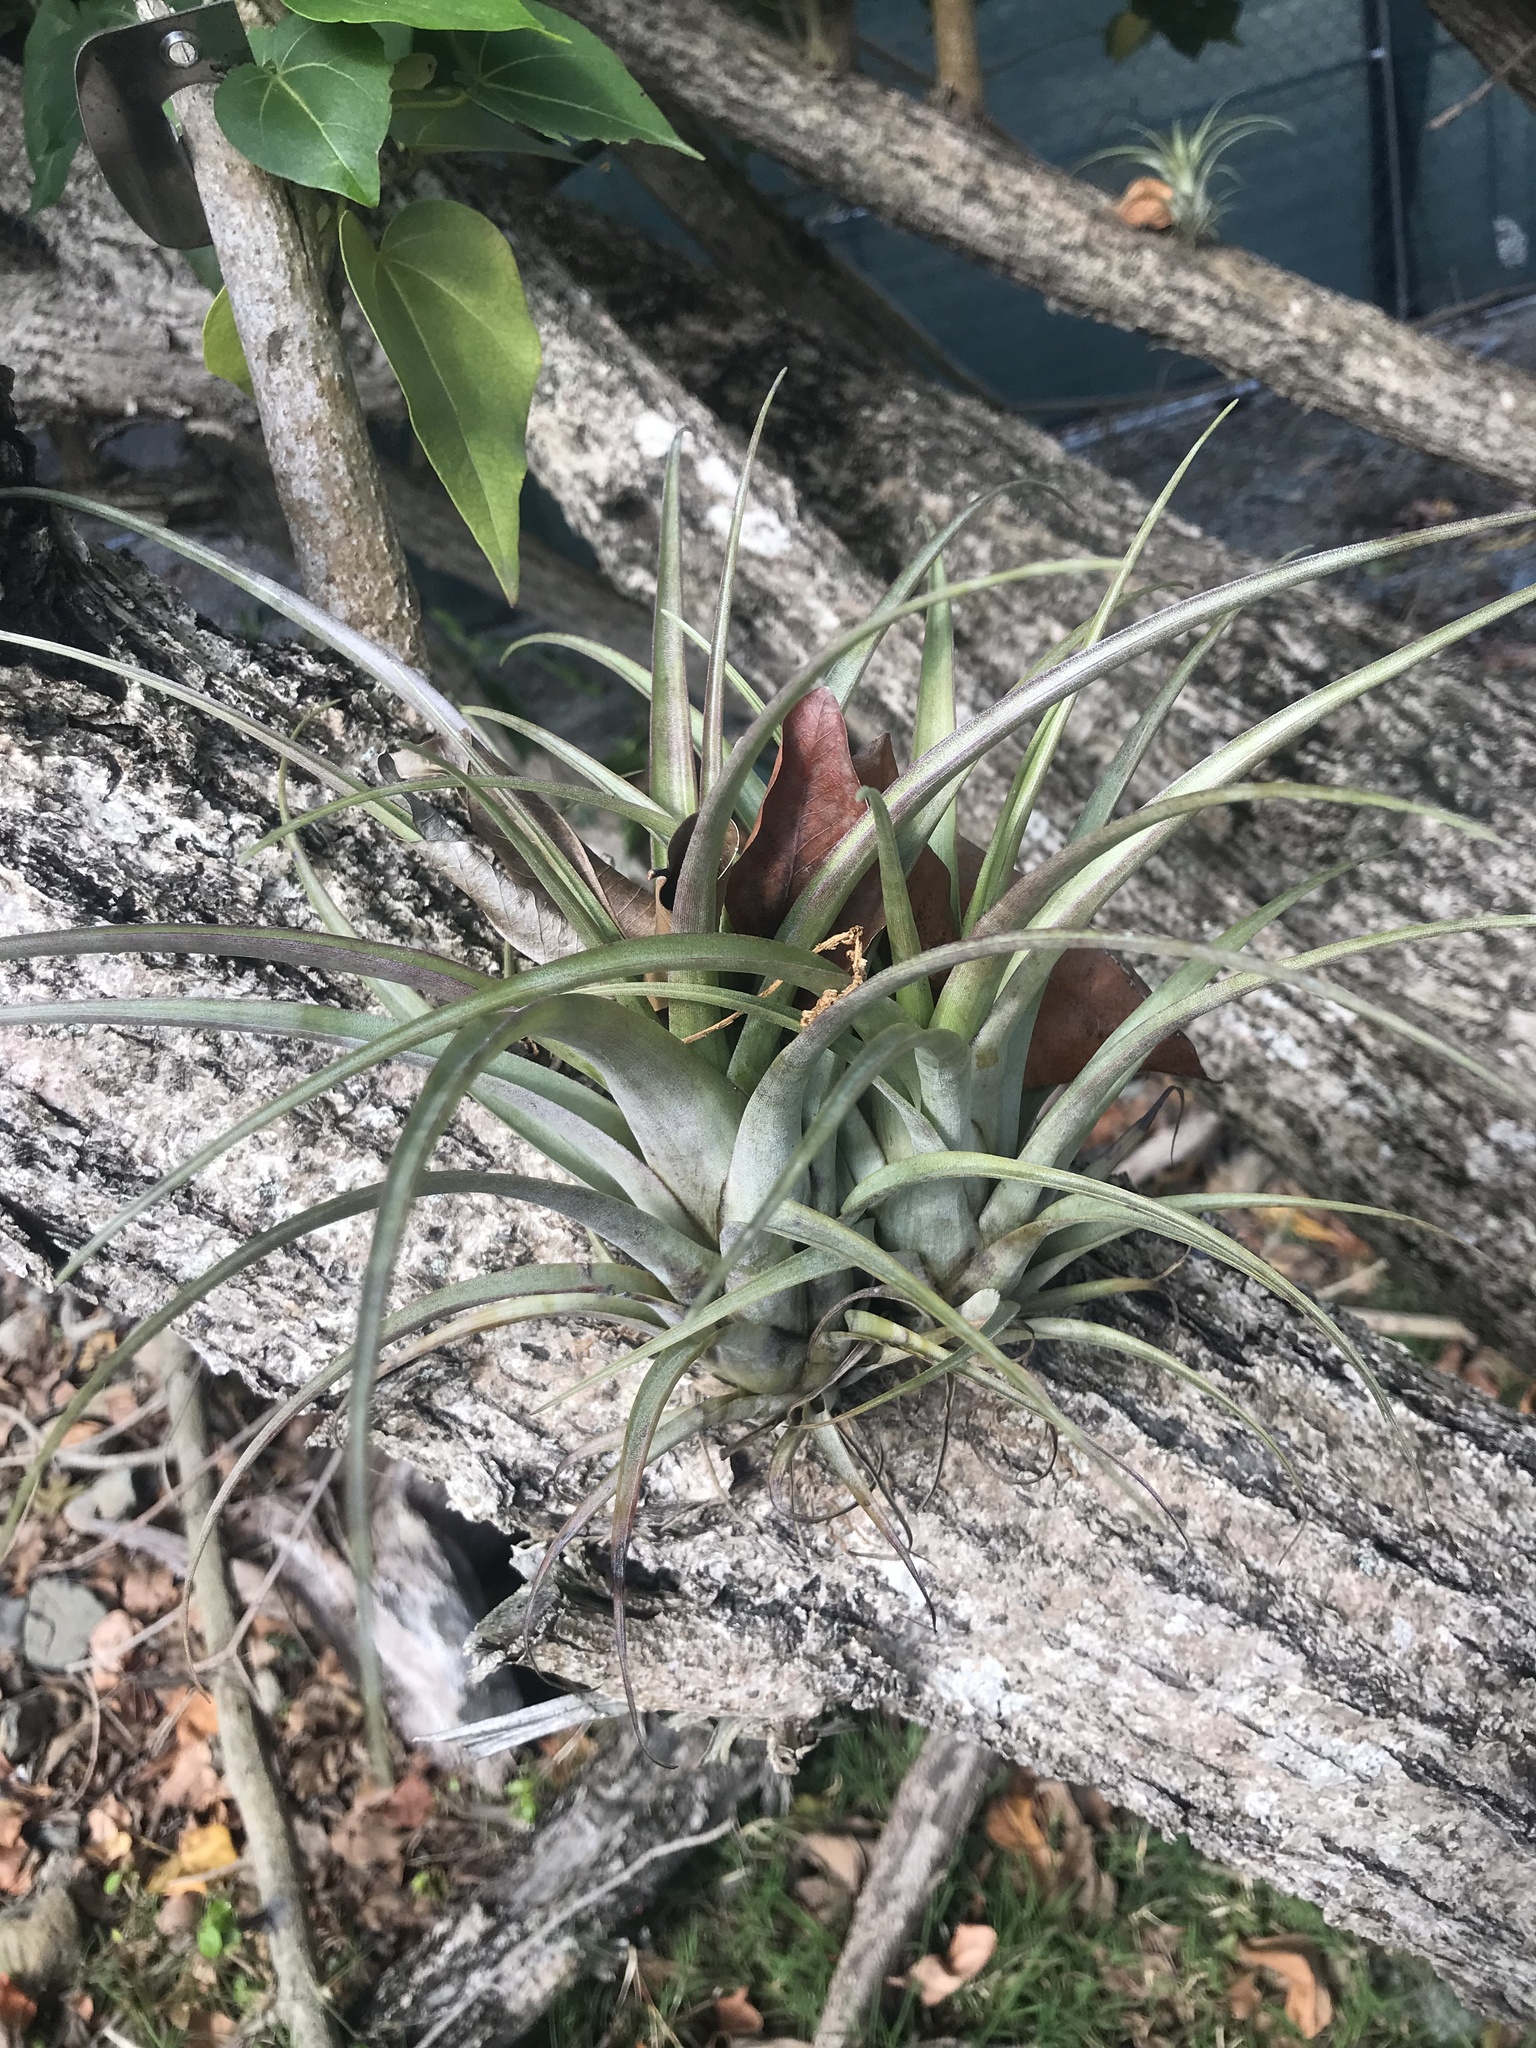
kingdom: Plantae
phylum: Tracheophyta
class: Liliopsida
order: Poales
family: Bromeliaceae
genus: Tillandsia
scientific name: Tillandsia utriculata
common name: Wild pine
